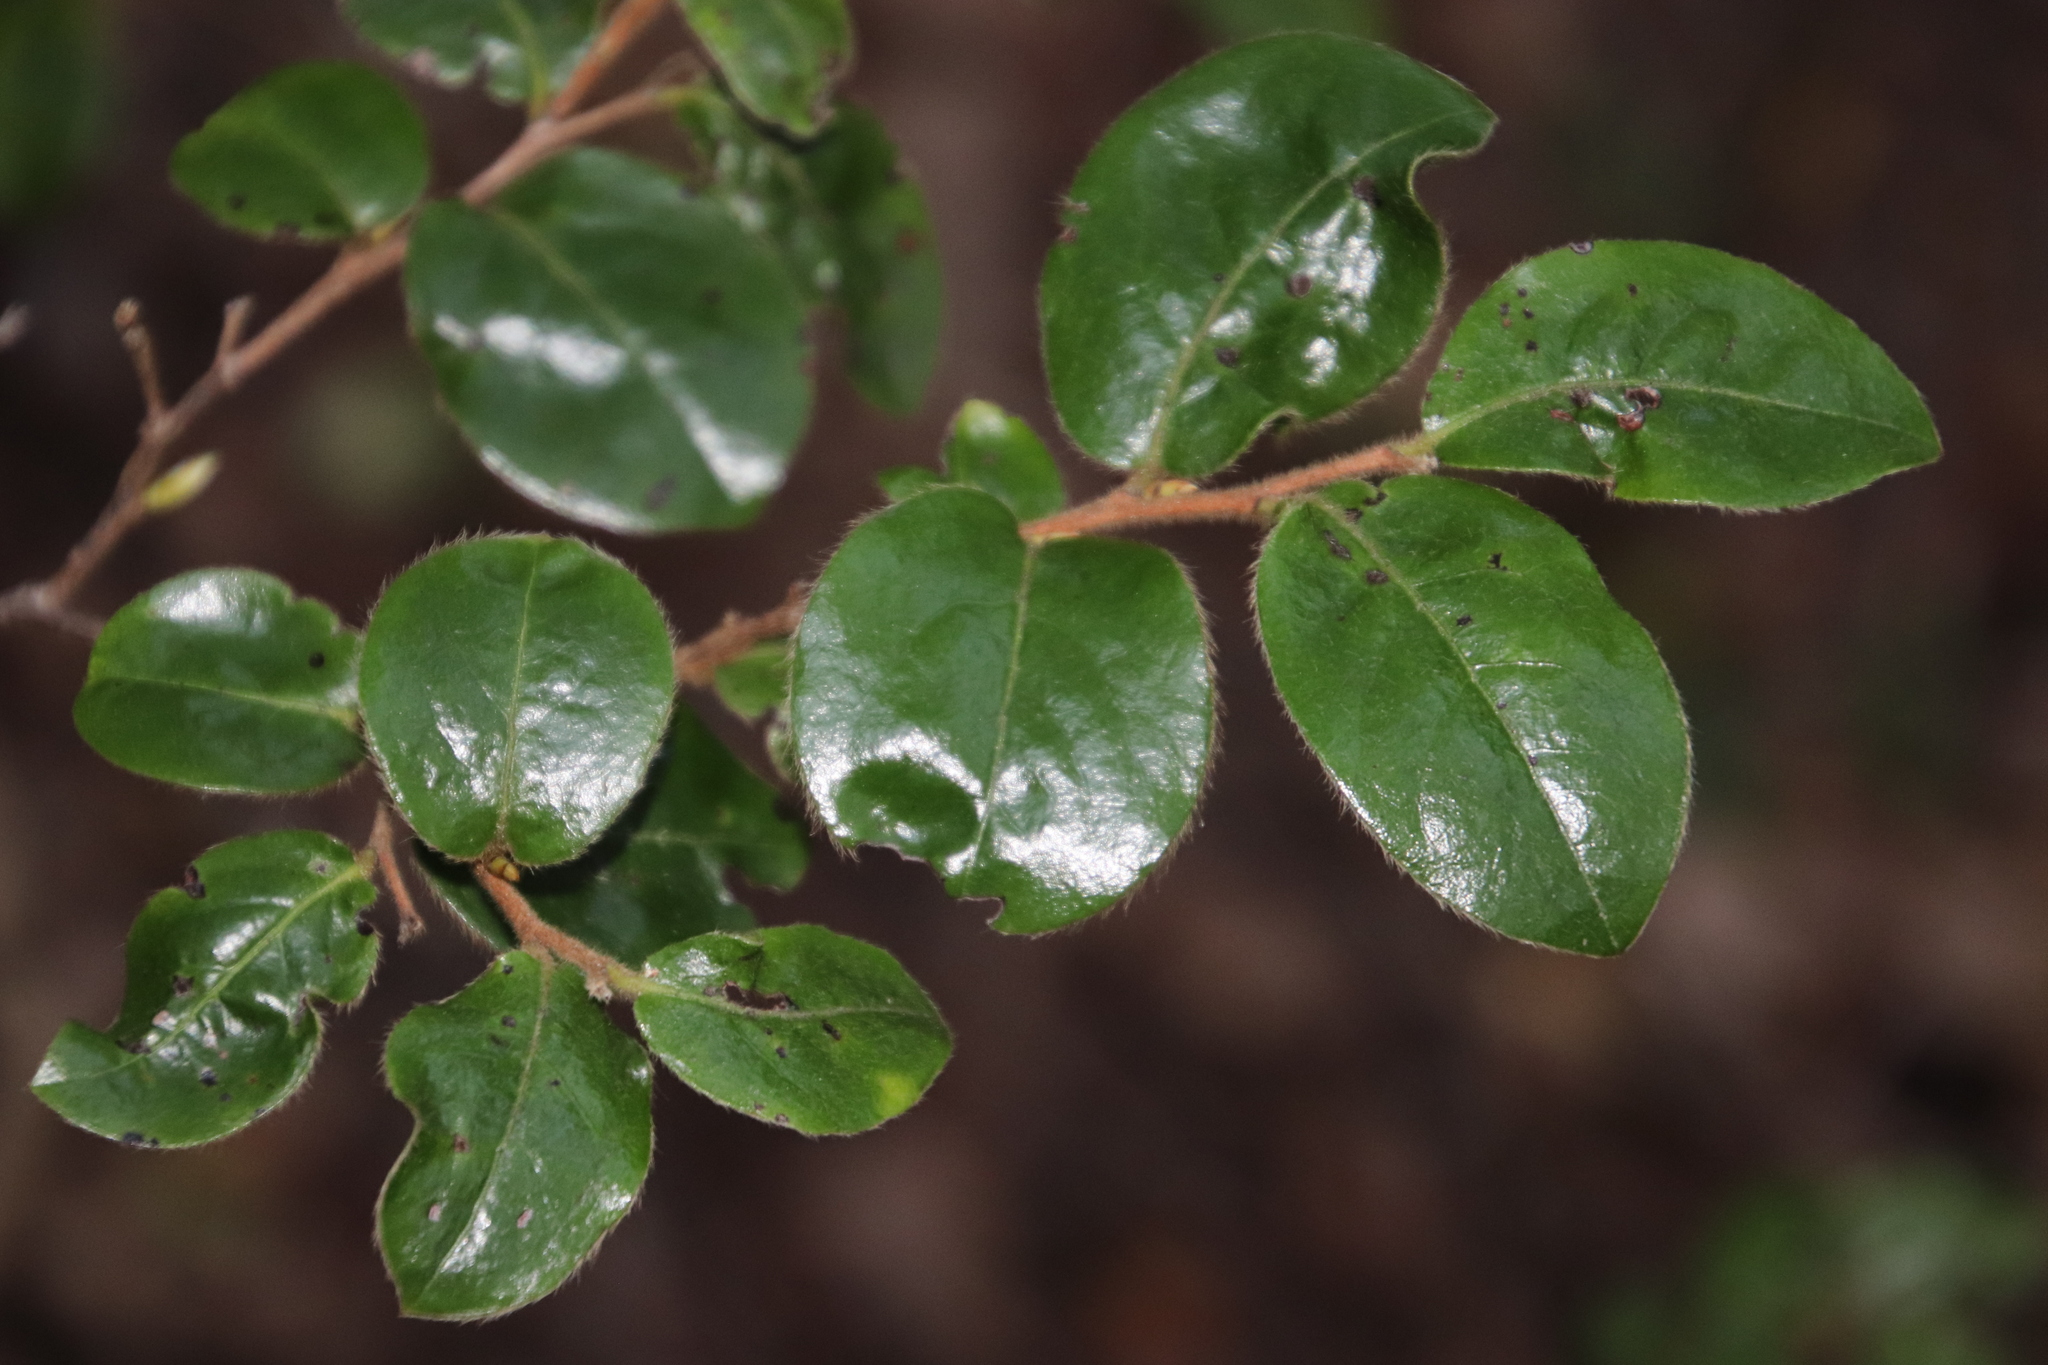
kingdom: Plantae
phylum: Tracheophyta
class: Magnoliopsida
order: Ericales
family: Ebenaceae
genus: Diospyros
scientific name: Diospyros whyteana
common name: Bladder-nut
